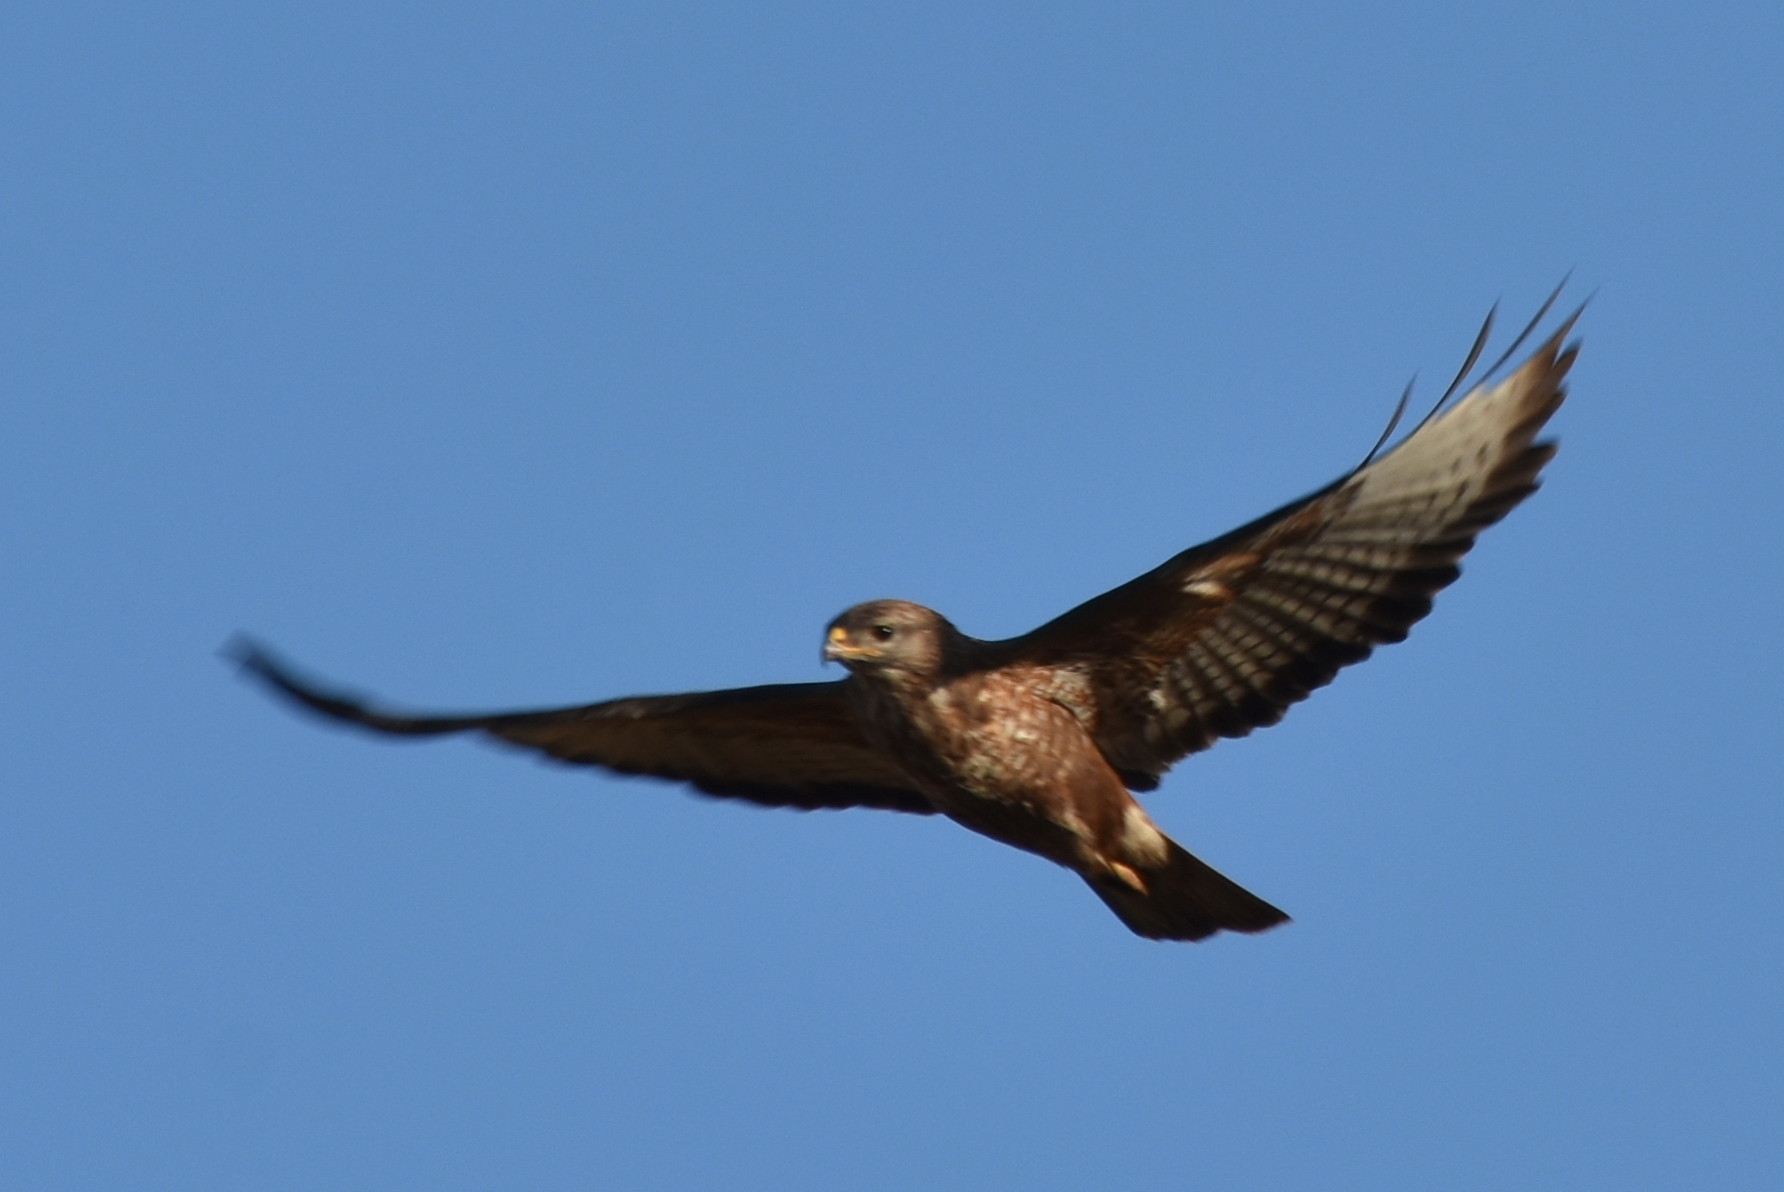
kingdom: Animalia
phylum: Chordata
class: Aves
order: Accipitriformes
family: Accipitridae
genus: Buteo
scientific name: Buteo buteo
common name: Common buzzard
